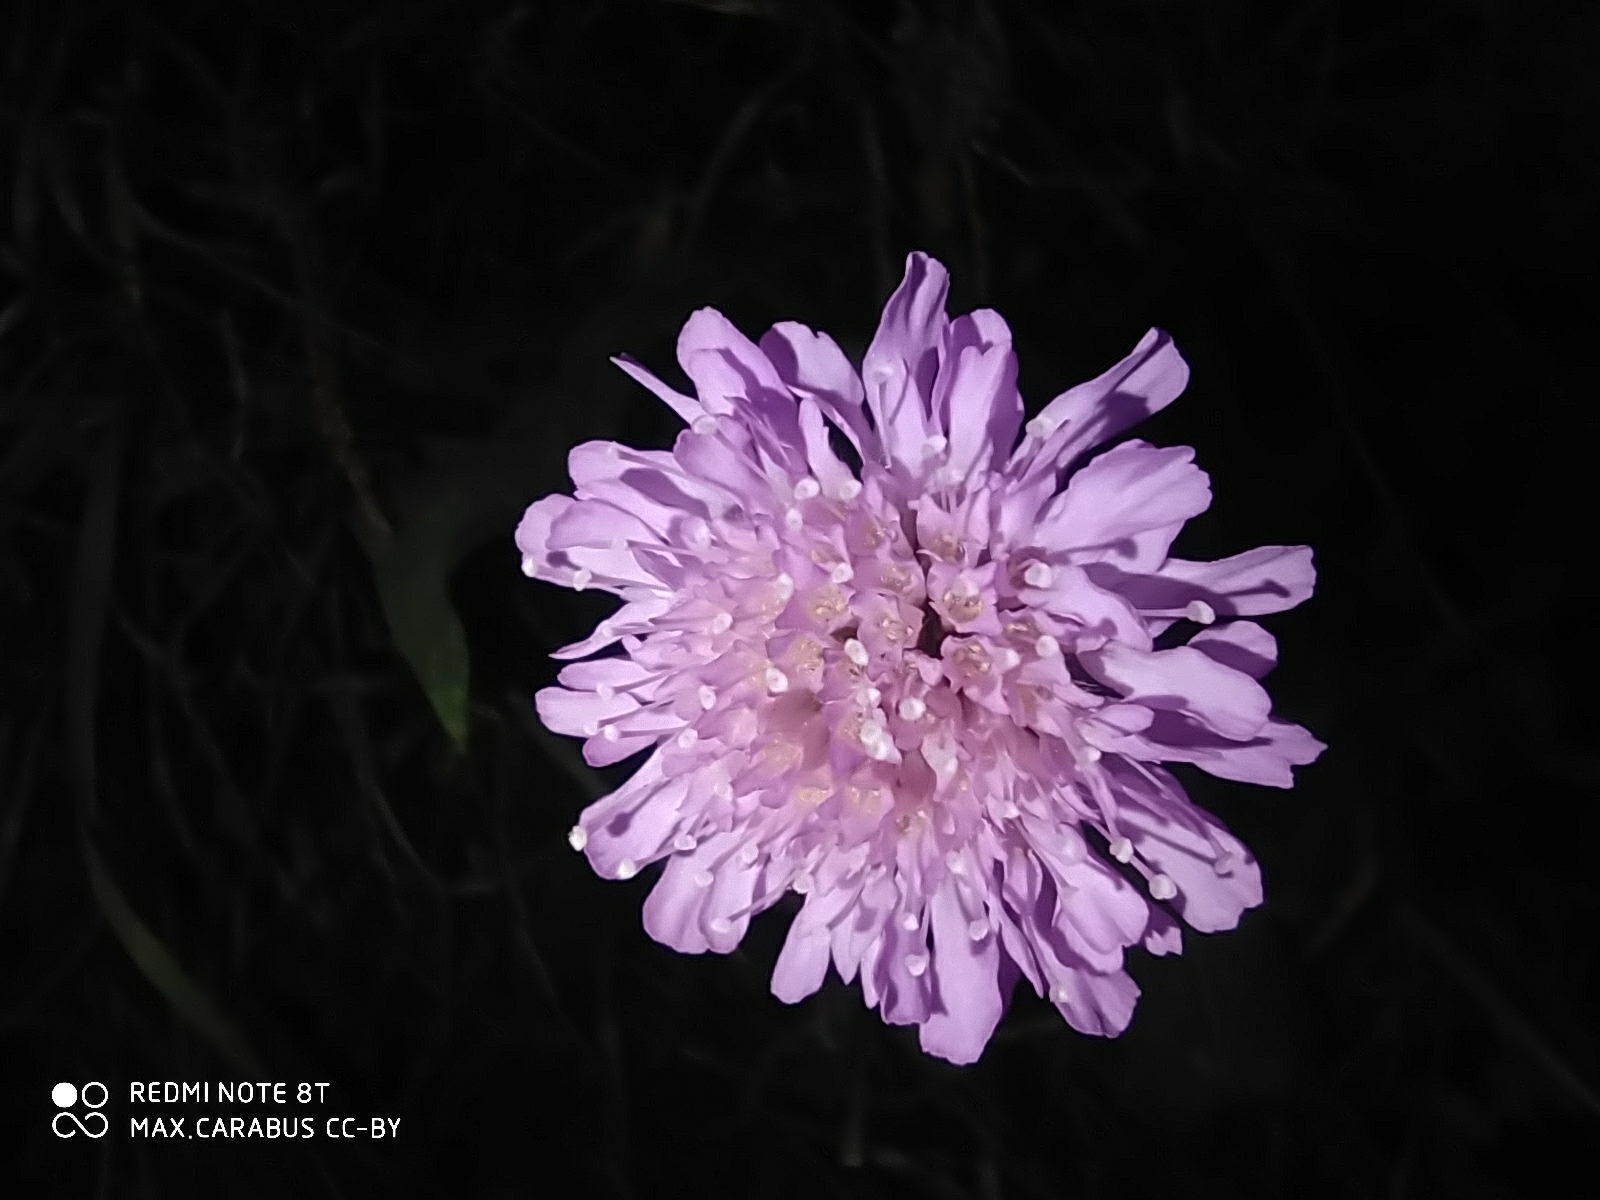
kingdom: Plantae
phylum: Tracheophyta
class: Magnoliopsida
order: Dipsacales
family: Caprifoliaceae
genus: Knautia
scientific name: Knautia arvensis
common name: Field scabiosa
